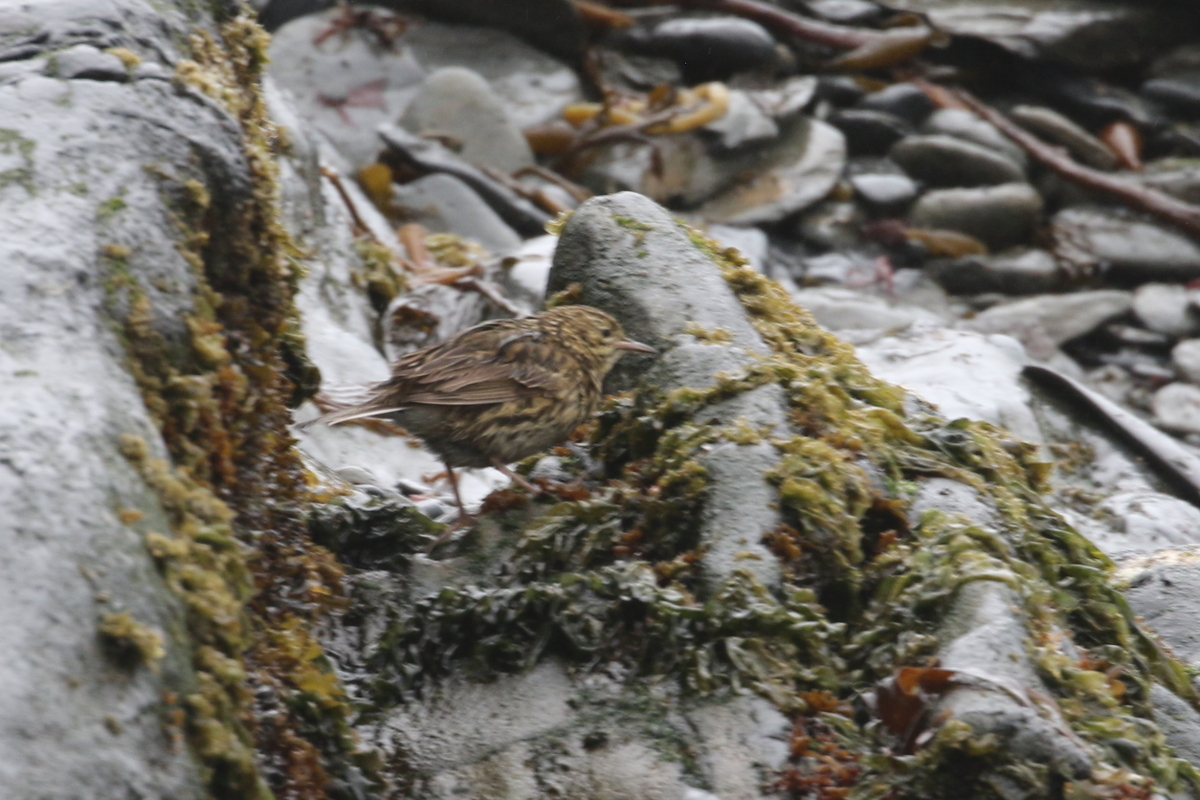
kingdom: Animalia
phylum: Chordata
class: Aves
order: Passeriformes
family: Motacillidae
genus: Anthus
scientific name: Anthus antarcticus
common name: South georgia pipit
